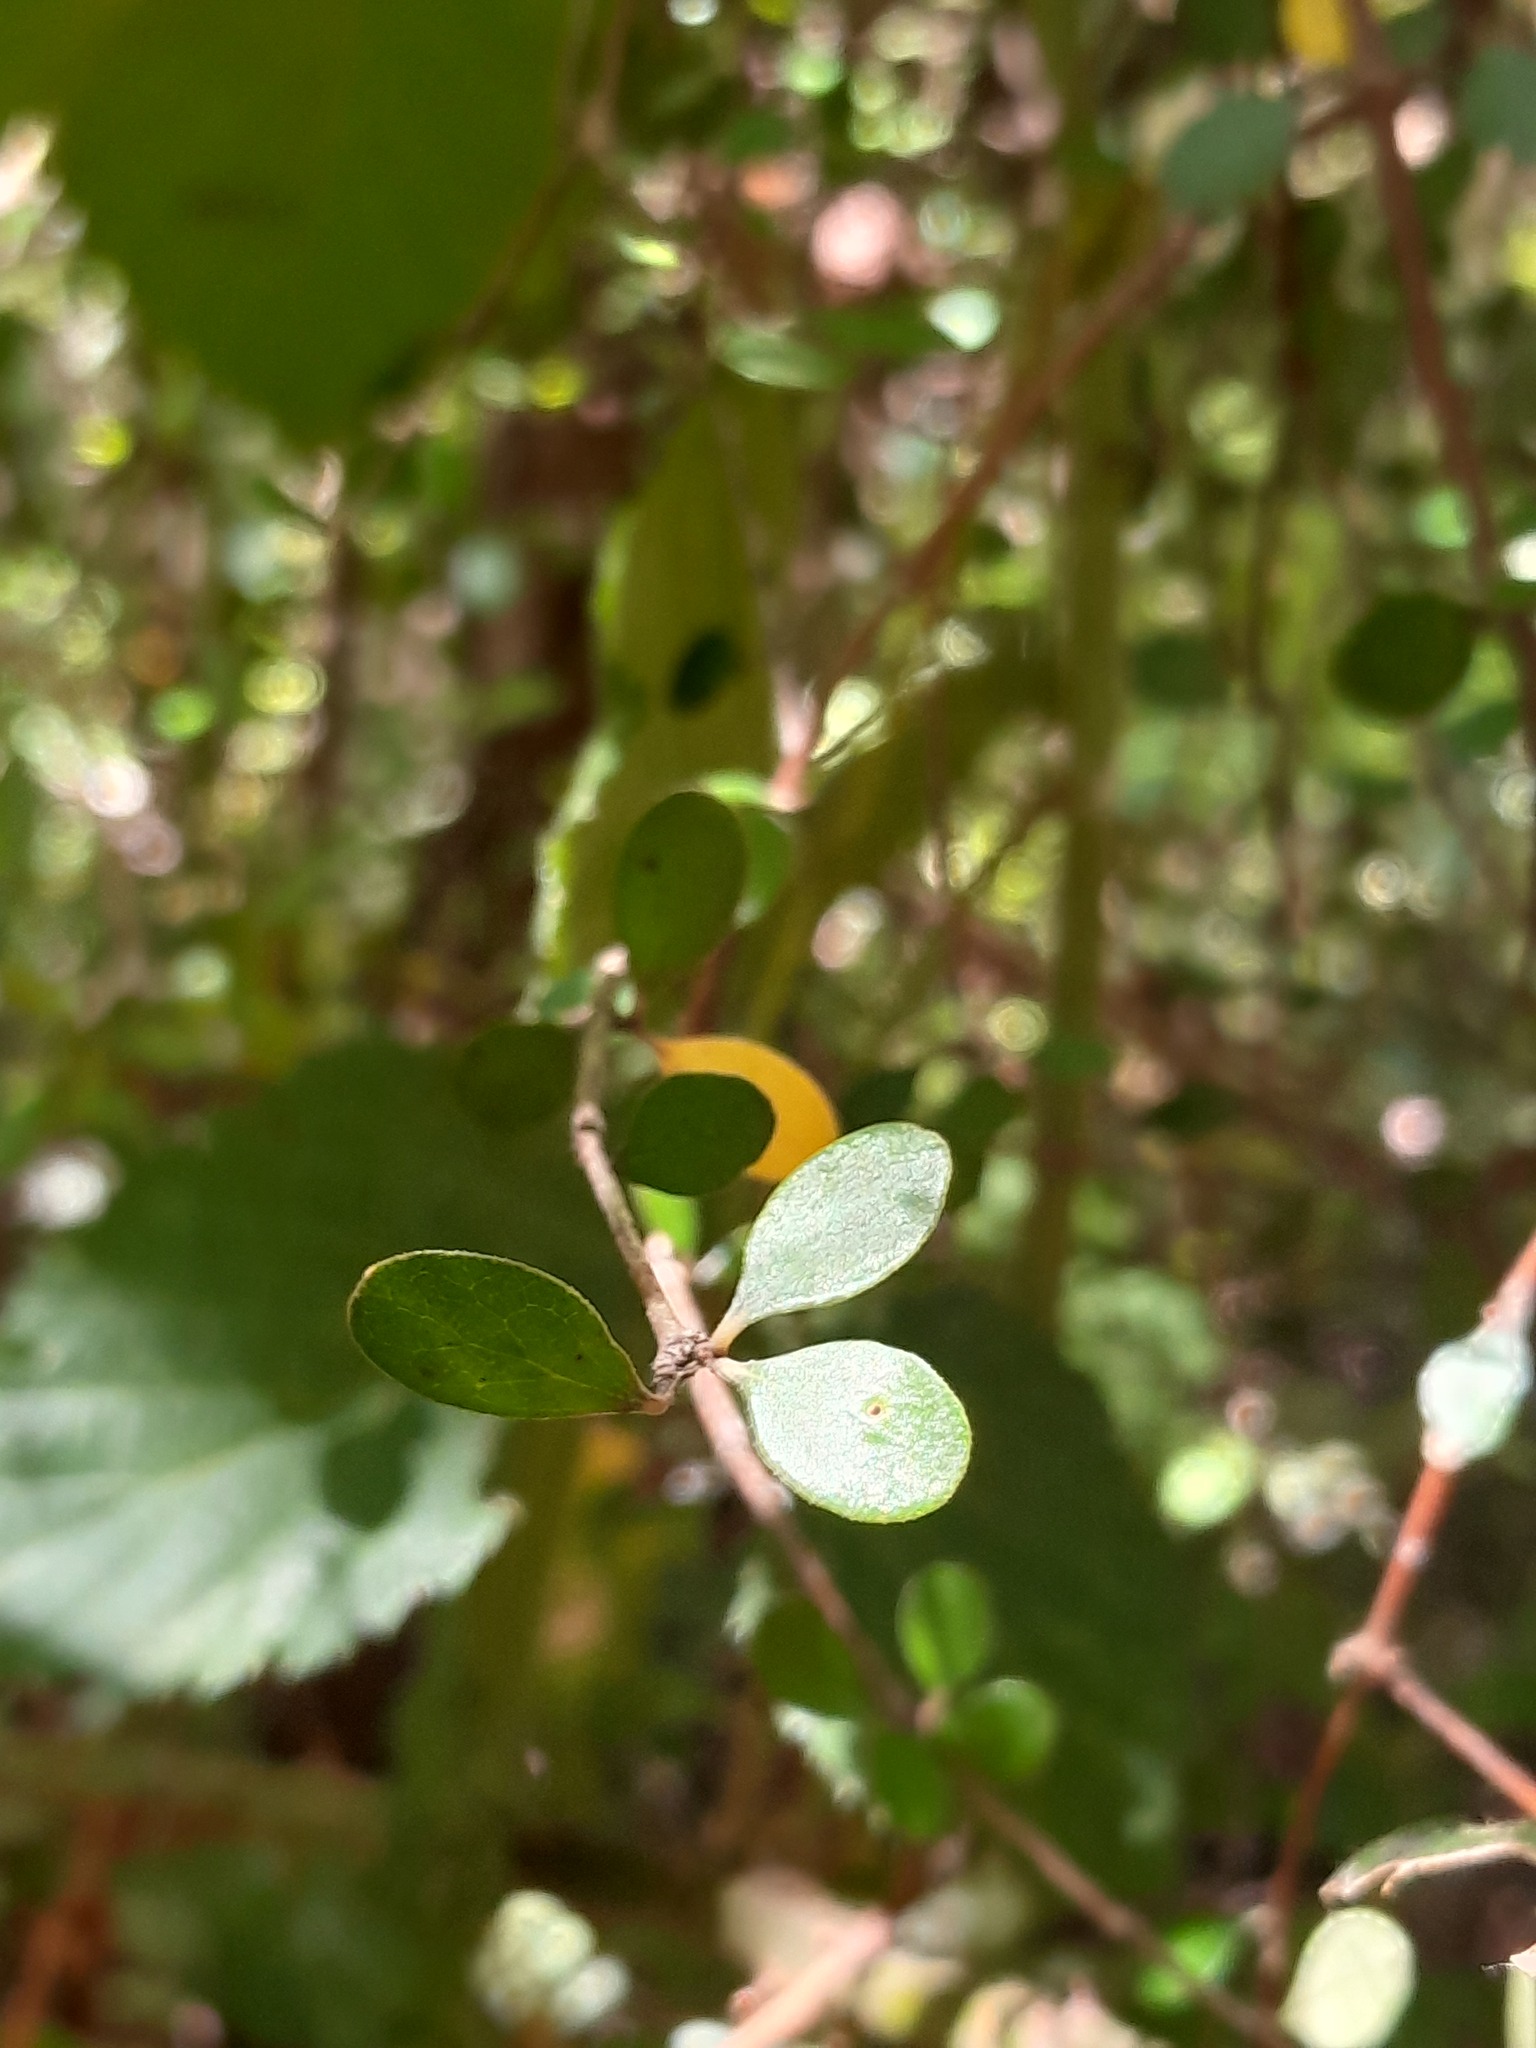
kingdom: Plantae
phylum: Tracheophyta
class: Magnoliopsida
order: Gentianales
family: Rubiaceae
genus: Coprosma
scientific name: Coprosma crassifolia
